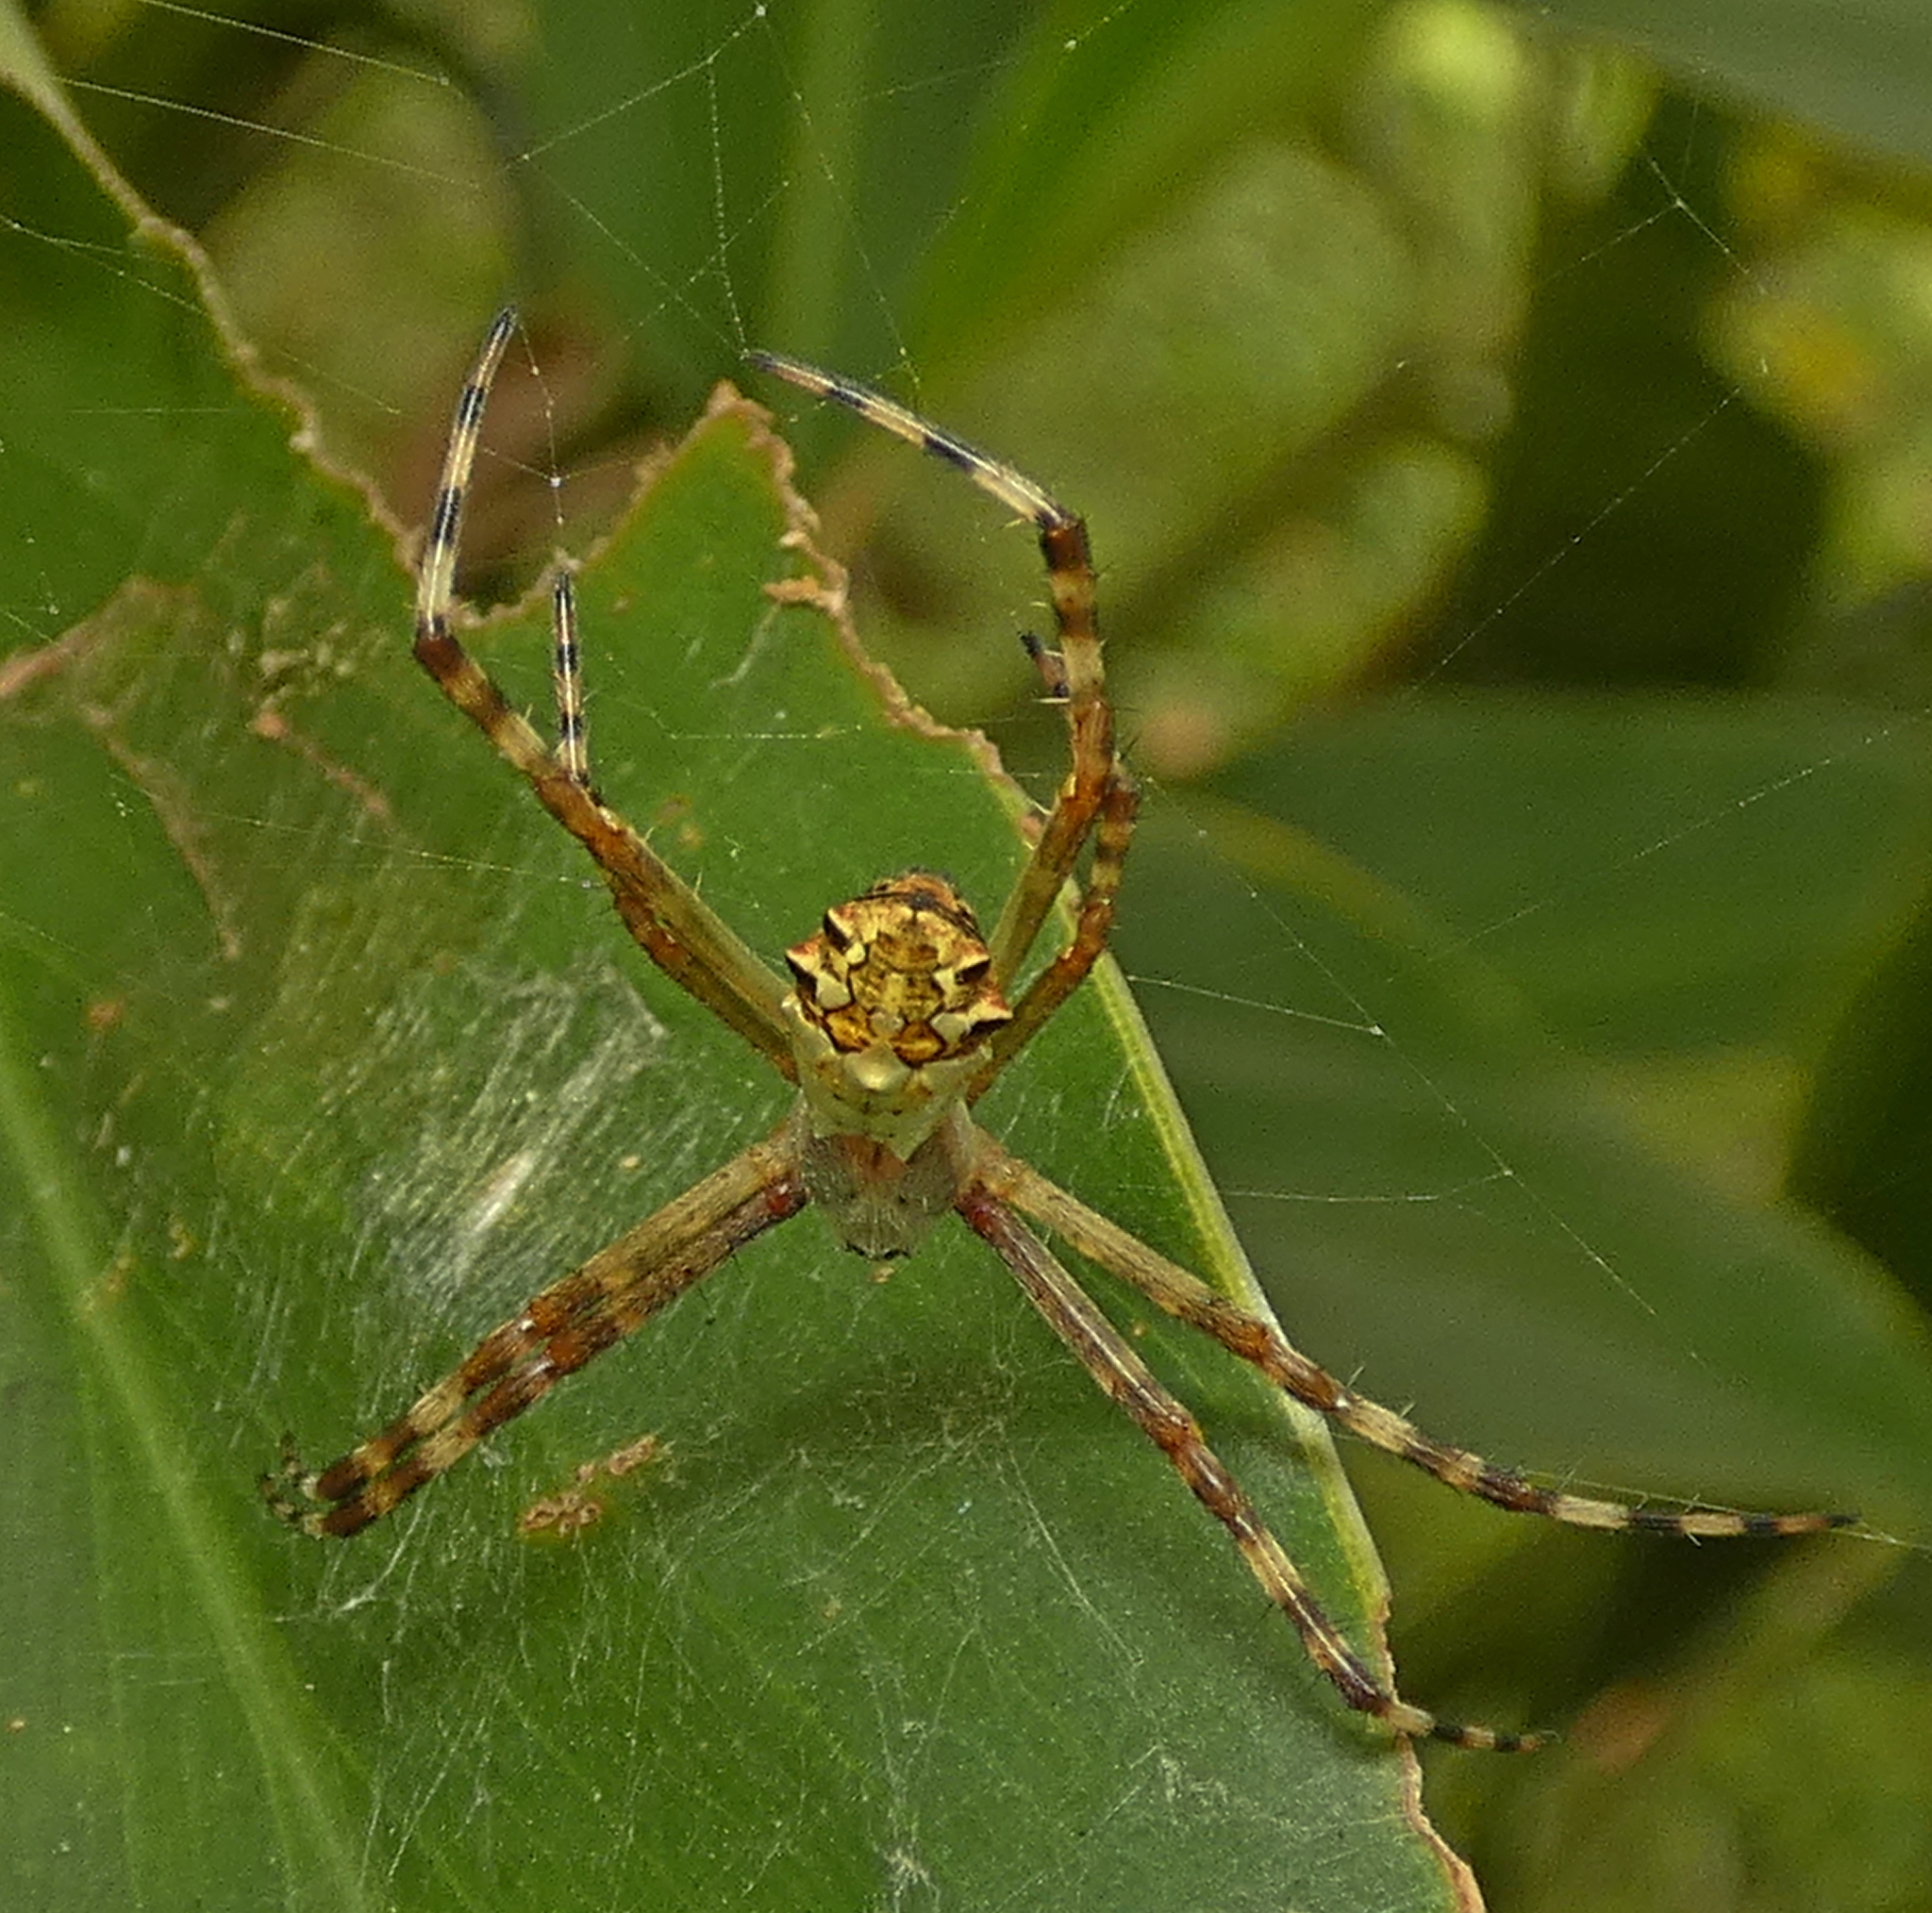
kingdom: Animalia
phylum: Arthropoda
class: Arachnida
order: Araneae
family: Araneidae
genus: Argiope
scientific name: Argiope argentata
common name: Orb weavers
